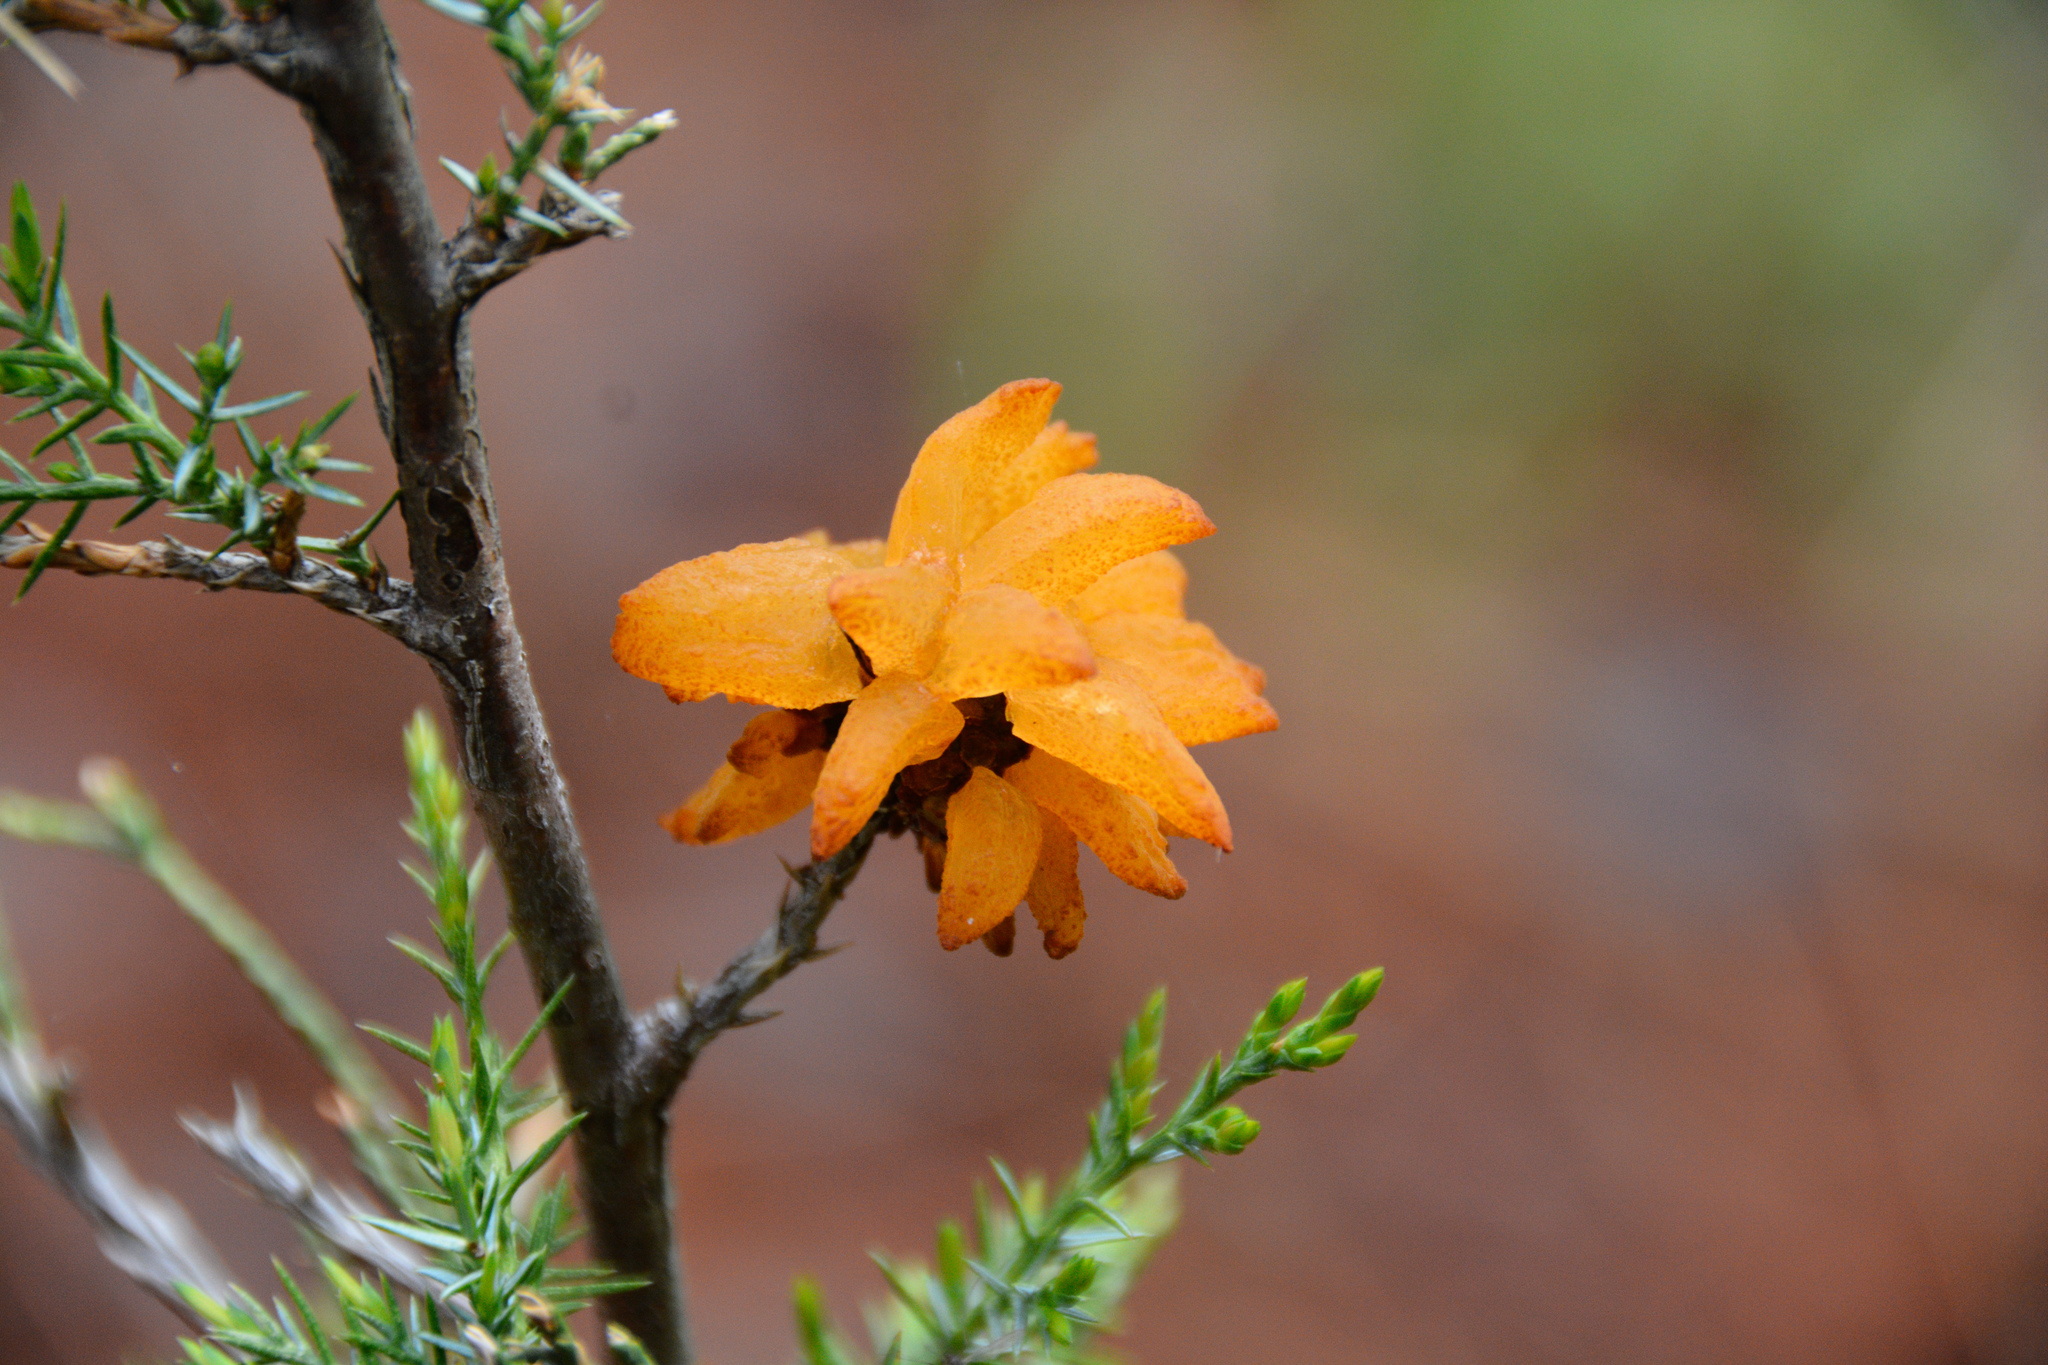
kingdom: Fungi
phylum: Basidiomycota
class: Pucciniomycetes
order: Pucciniales
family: Gymnosporangiaceae
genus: Gymnosporangium
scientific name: Gymnosporangium juniperi-virginianae
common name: Juniper-apple rust
